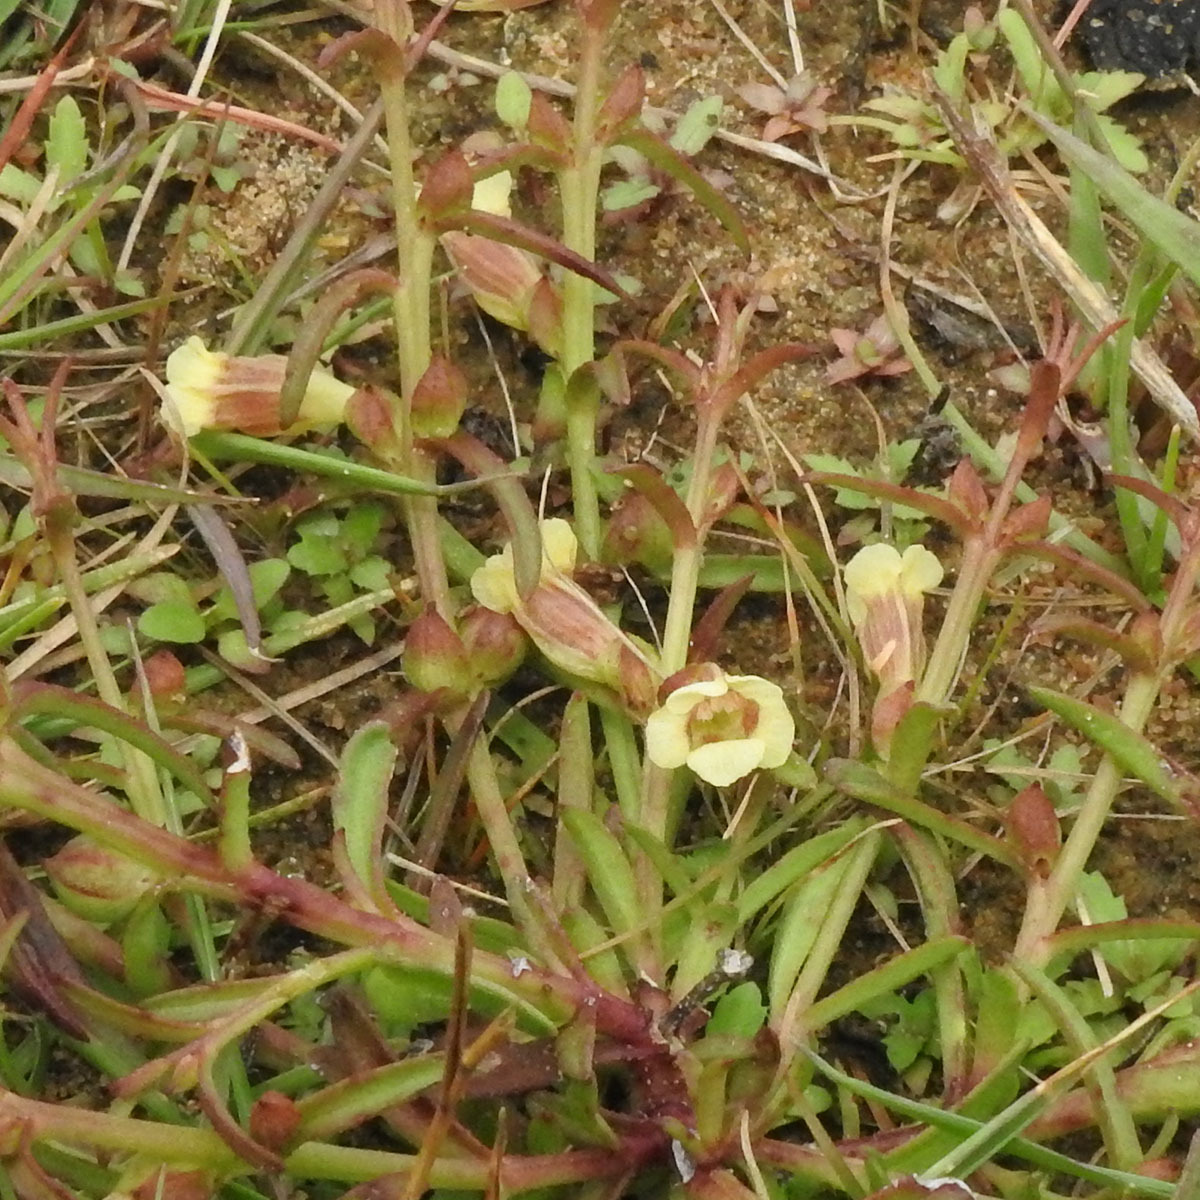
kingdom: Plantae
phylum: Tracheophyta
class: Magnoliopsida
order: Lamiales
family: Orobanchaceae
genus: Centranthera
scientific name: Centranthera tranquebarica
